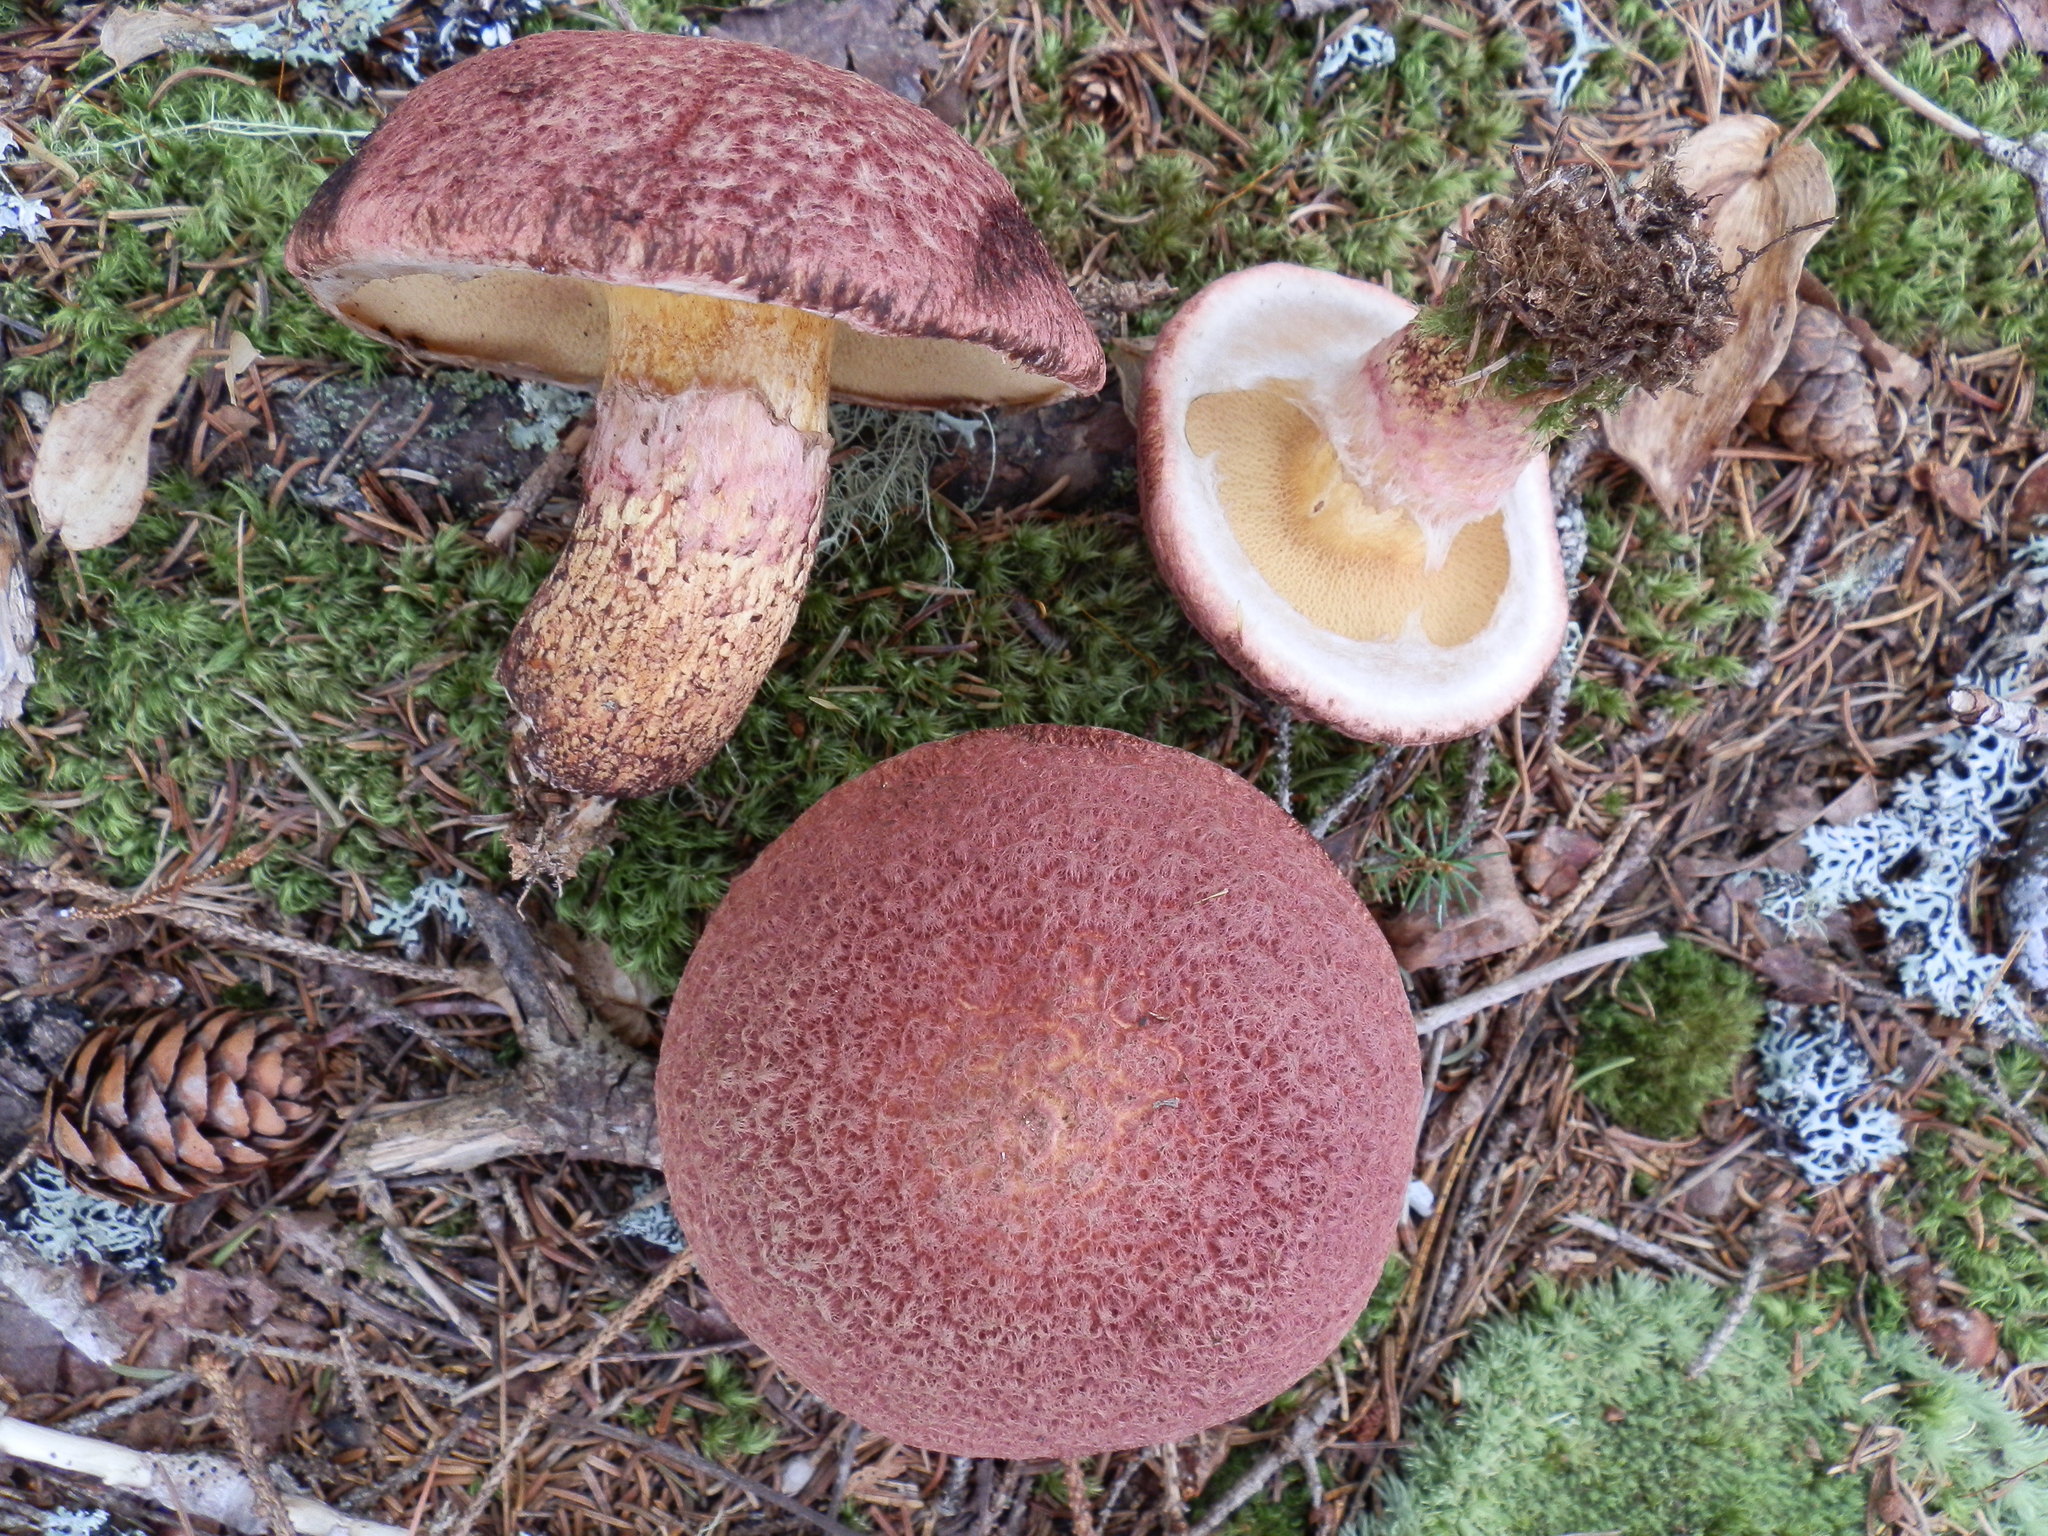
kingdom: Fungi
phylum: Basidiomycota
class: Agaricomycetes
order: Boletales
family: Suillaceae
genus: Suillus
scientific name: Suillus spraguei
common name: Painted suillus
